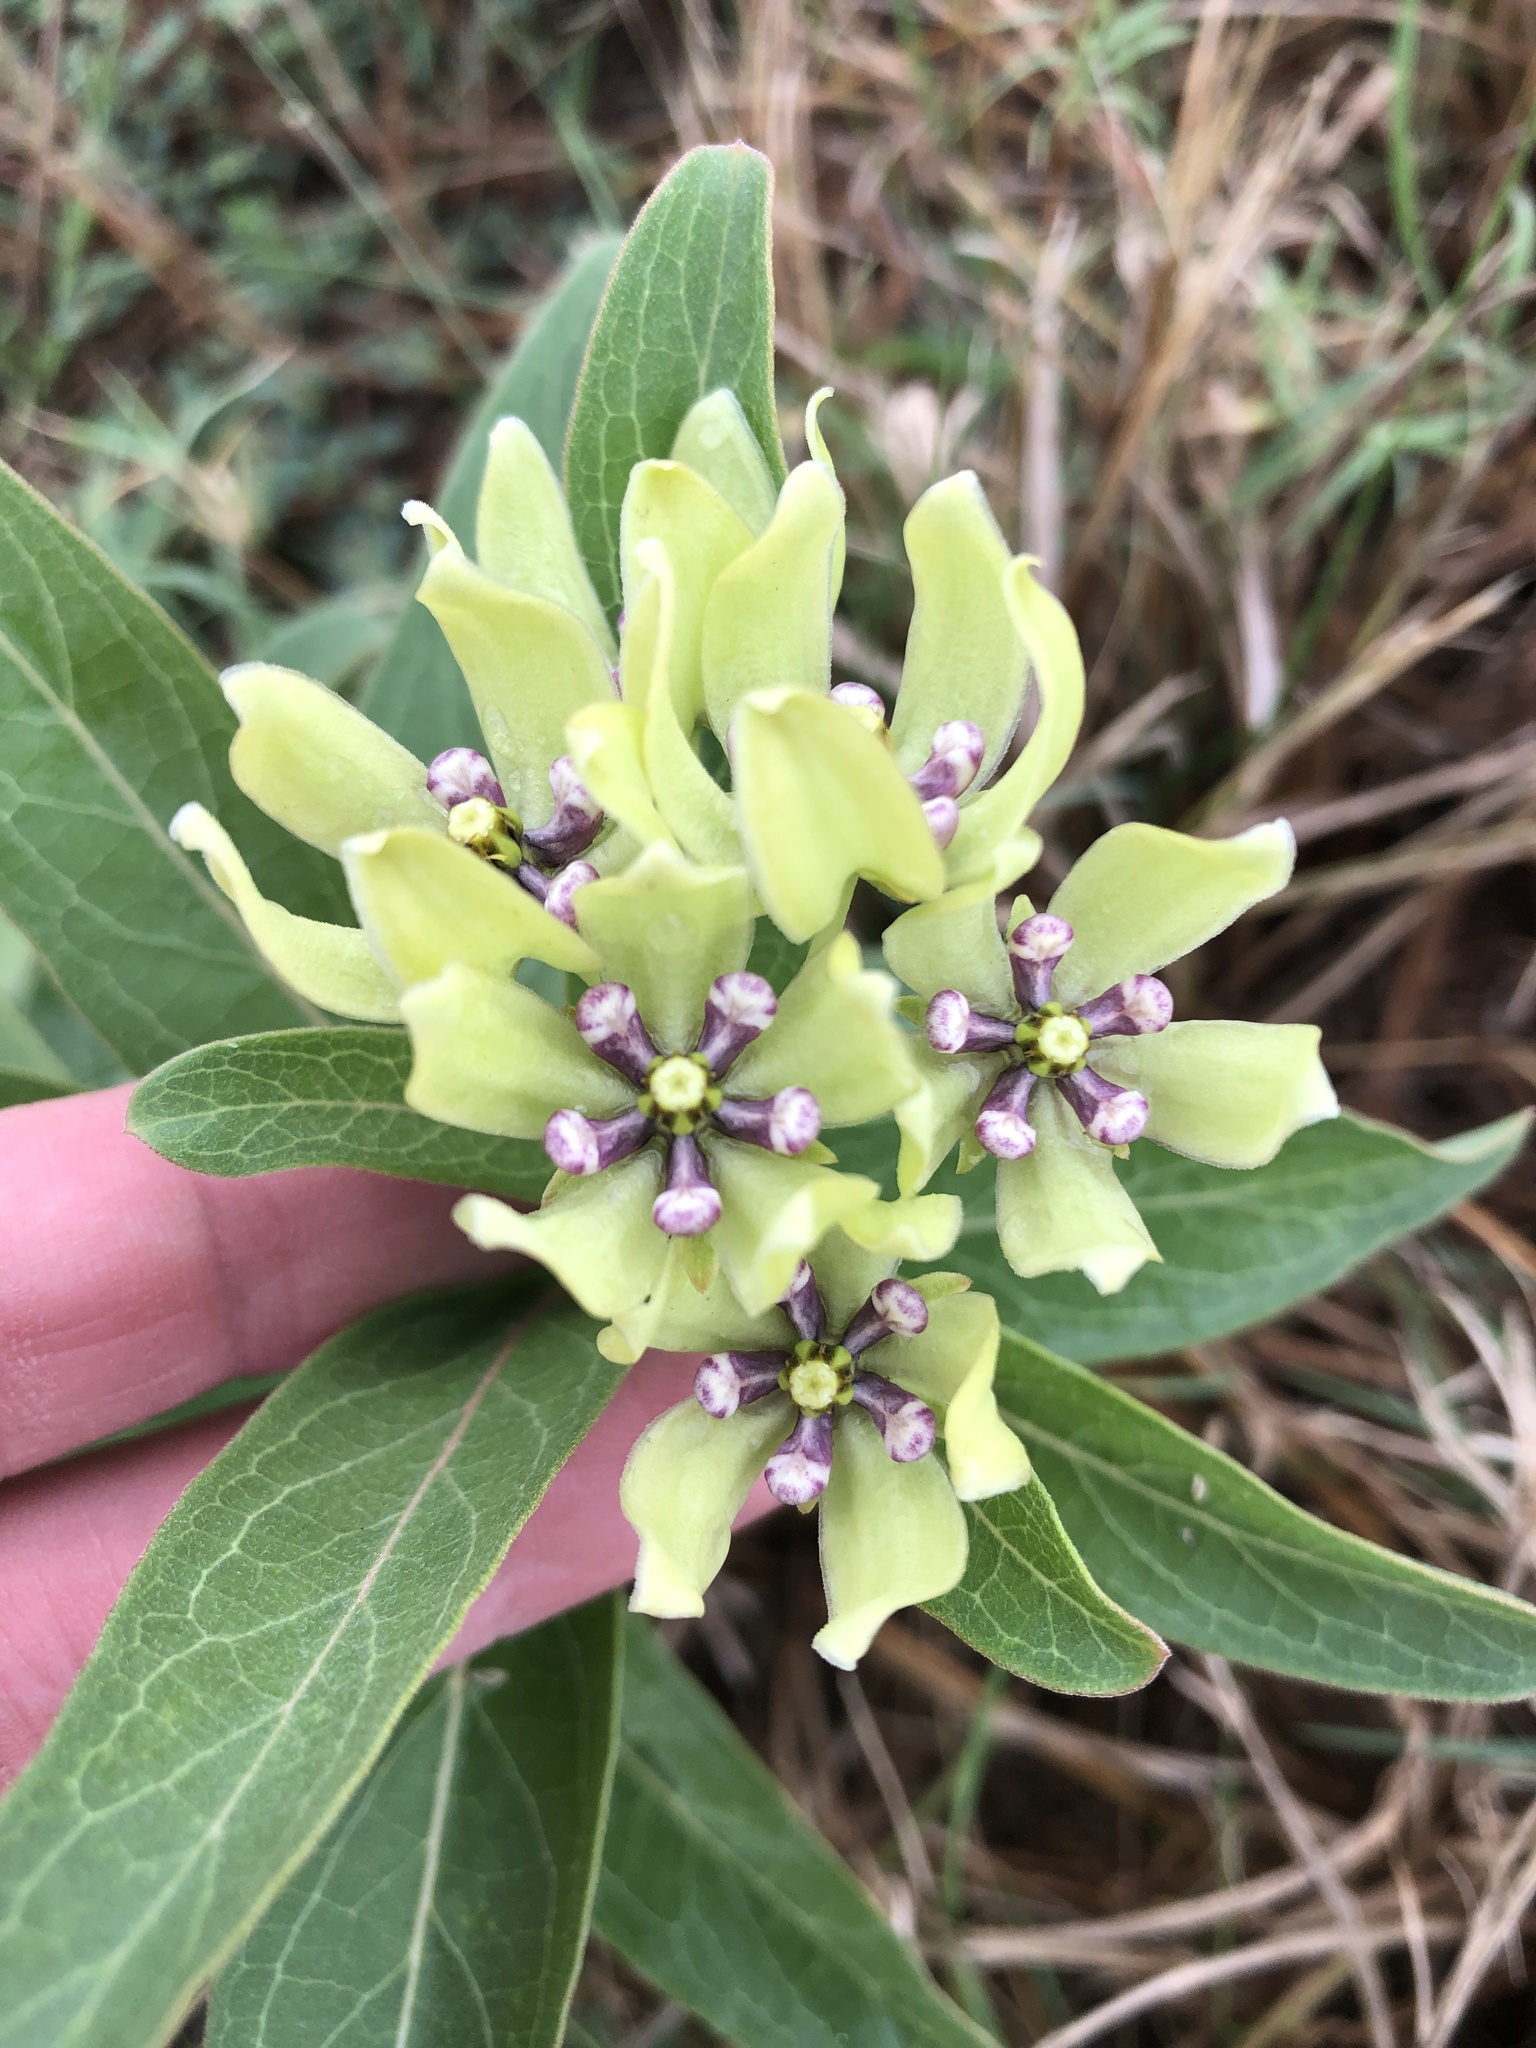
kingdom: Plantae
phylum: Tracheophyta
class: Magnoliopsida
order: Gentianales
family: Apocynaceae
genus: Asclepias
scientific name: Asclepias viridis
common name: Antelope-horns
